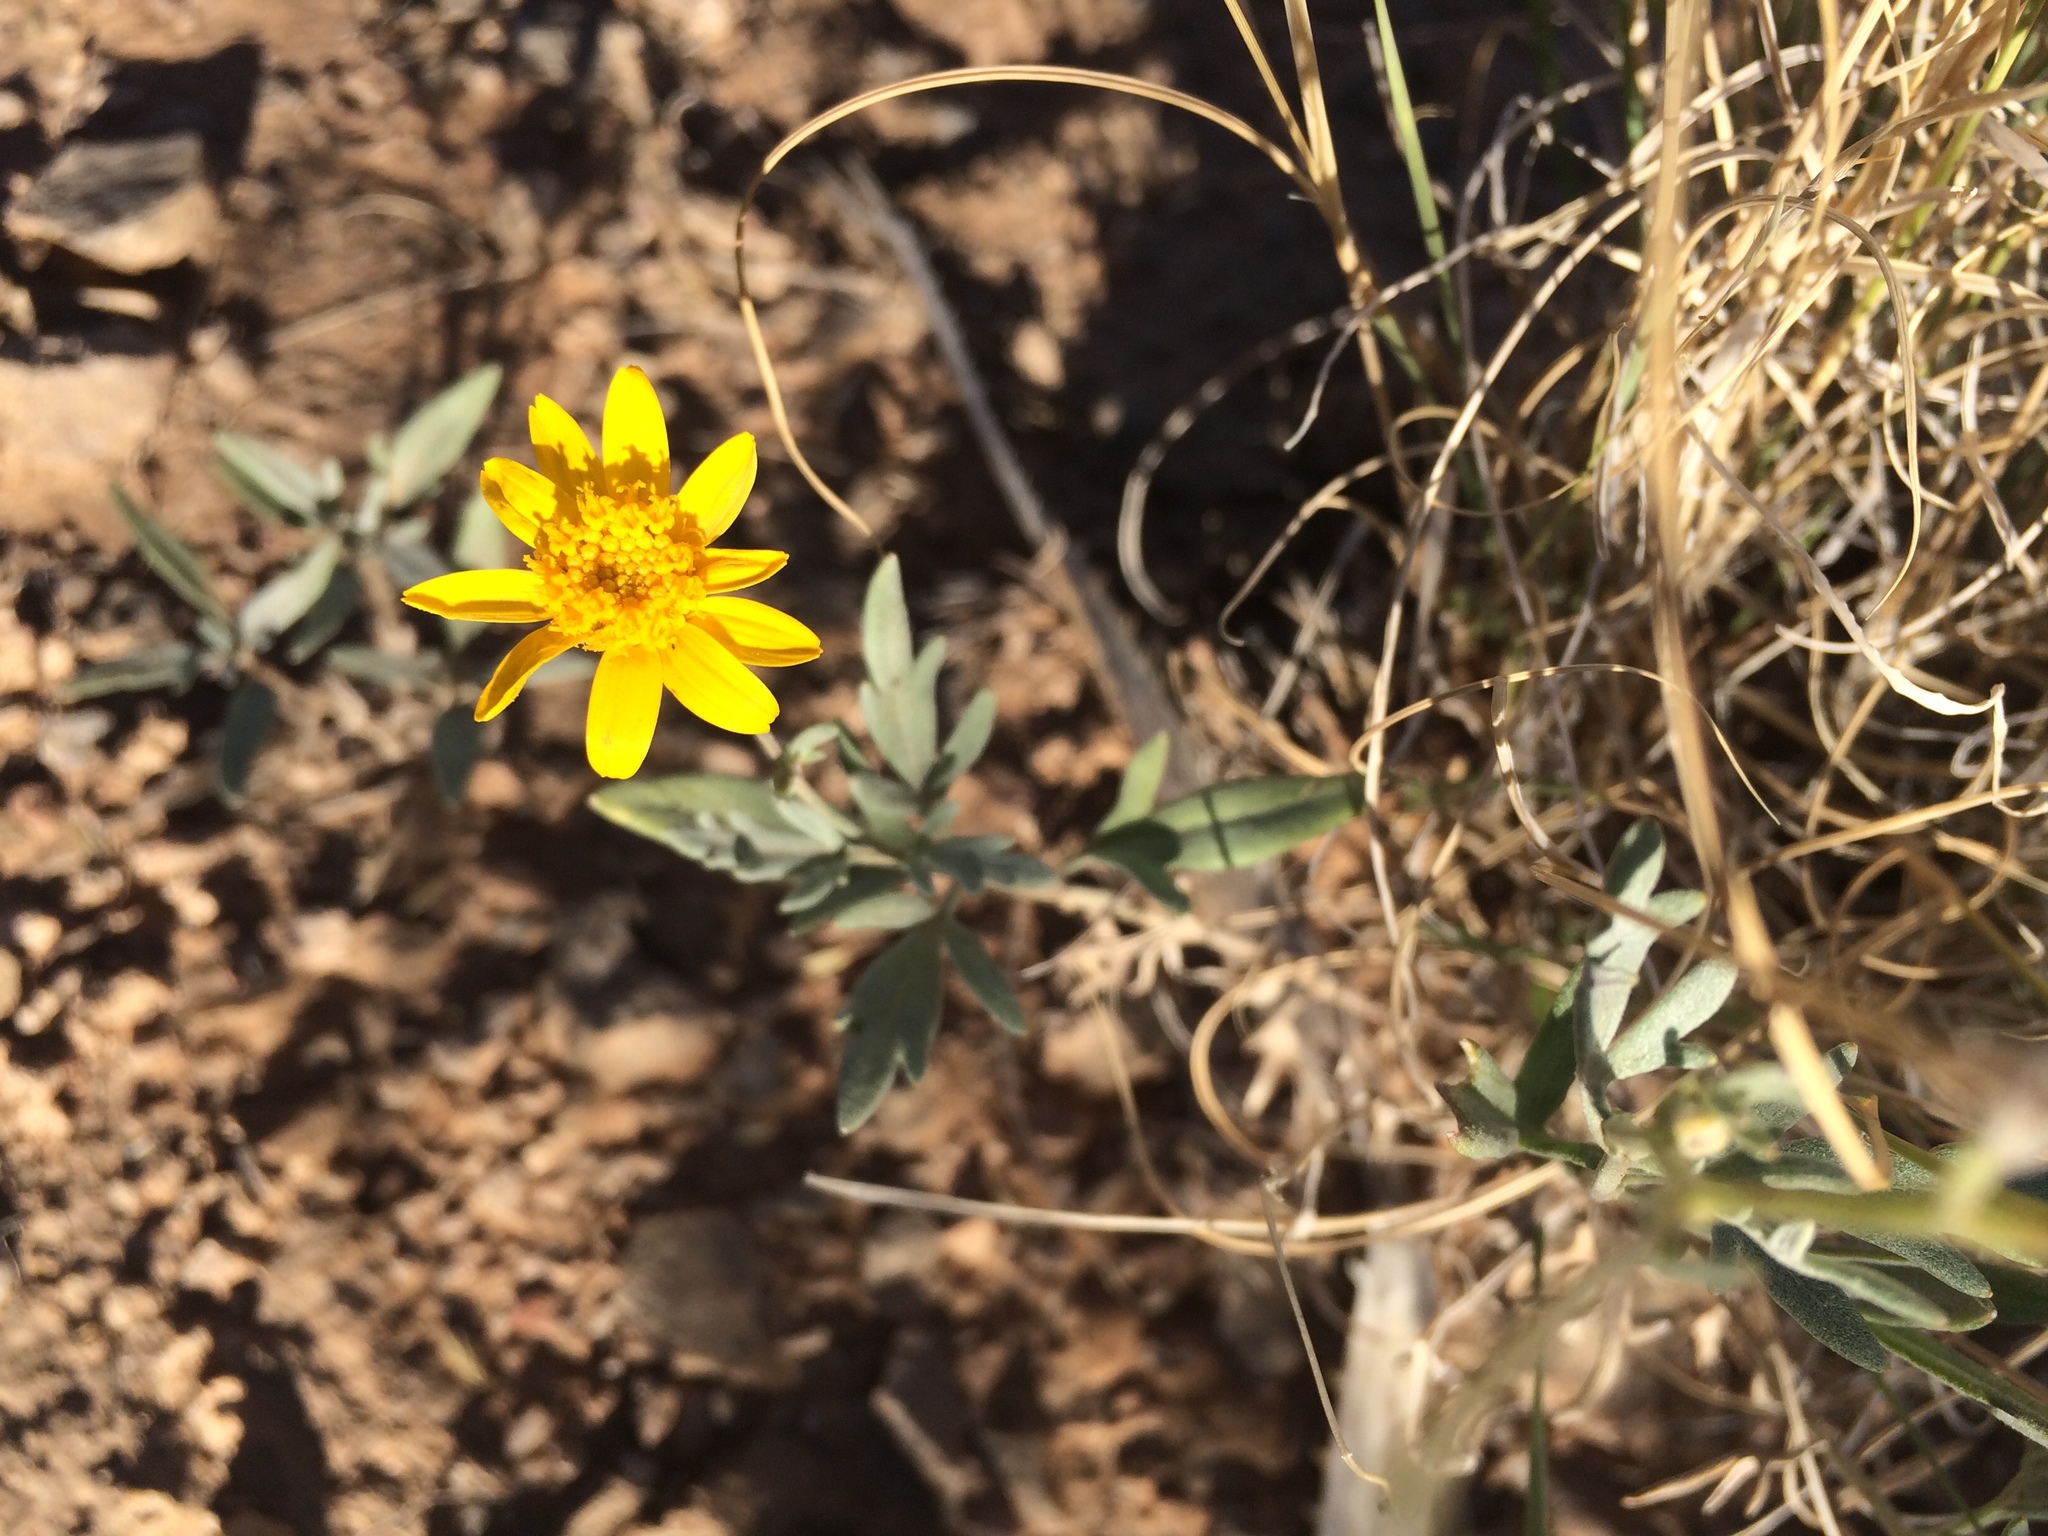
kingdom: Plantae
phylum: Tracheophyta
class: Magnoliopsida
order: Asterales
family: Asteraceae
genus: Picradeniopsis
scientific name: Picradeniopsis absinthifolia
